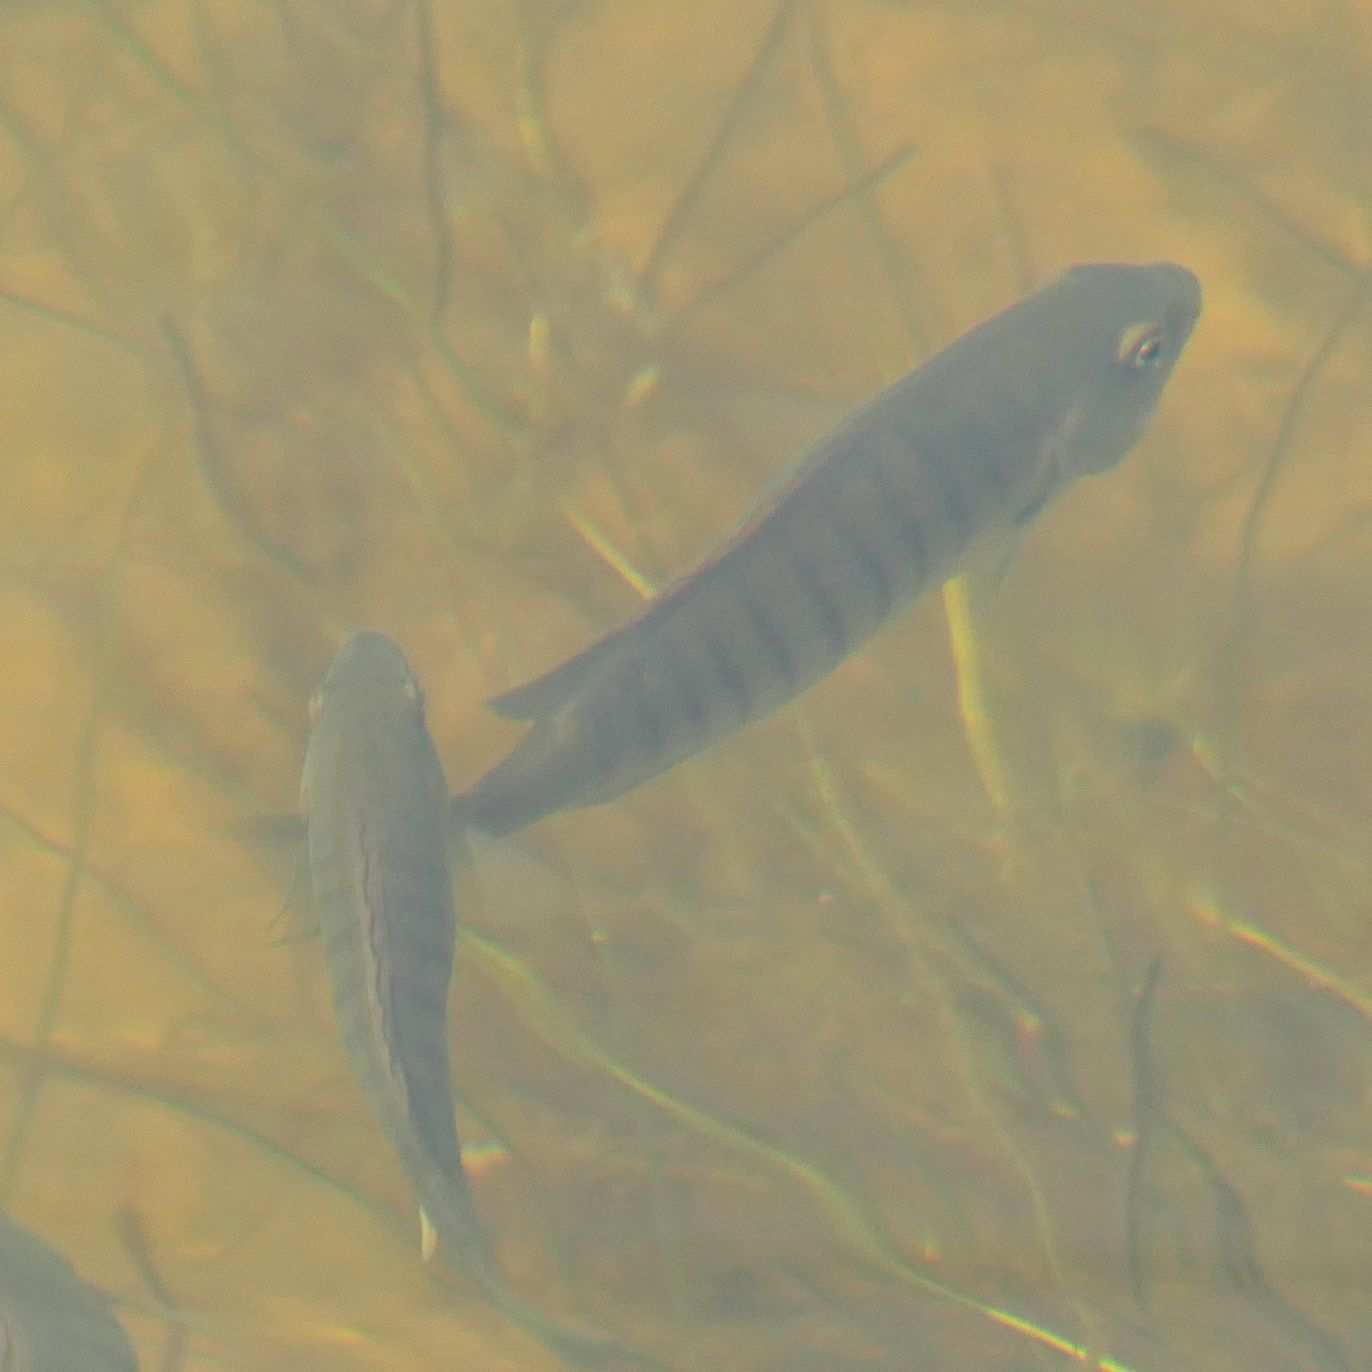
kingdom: Animalia
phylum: Chordata
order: Perciformes
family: Kyphosidae
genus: Girella
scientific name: Girella zebra
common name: Stripey bream
